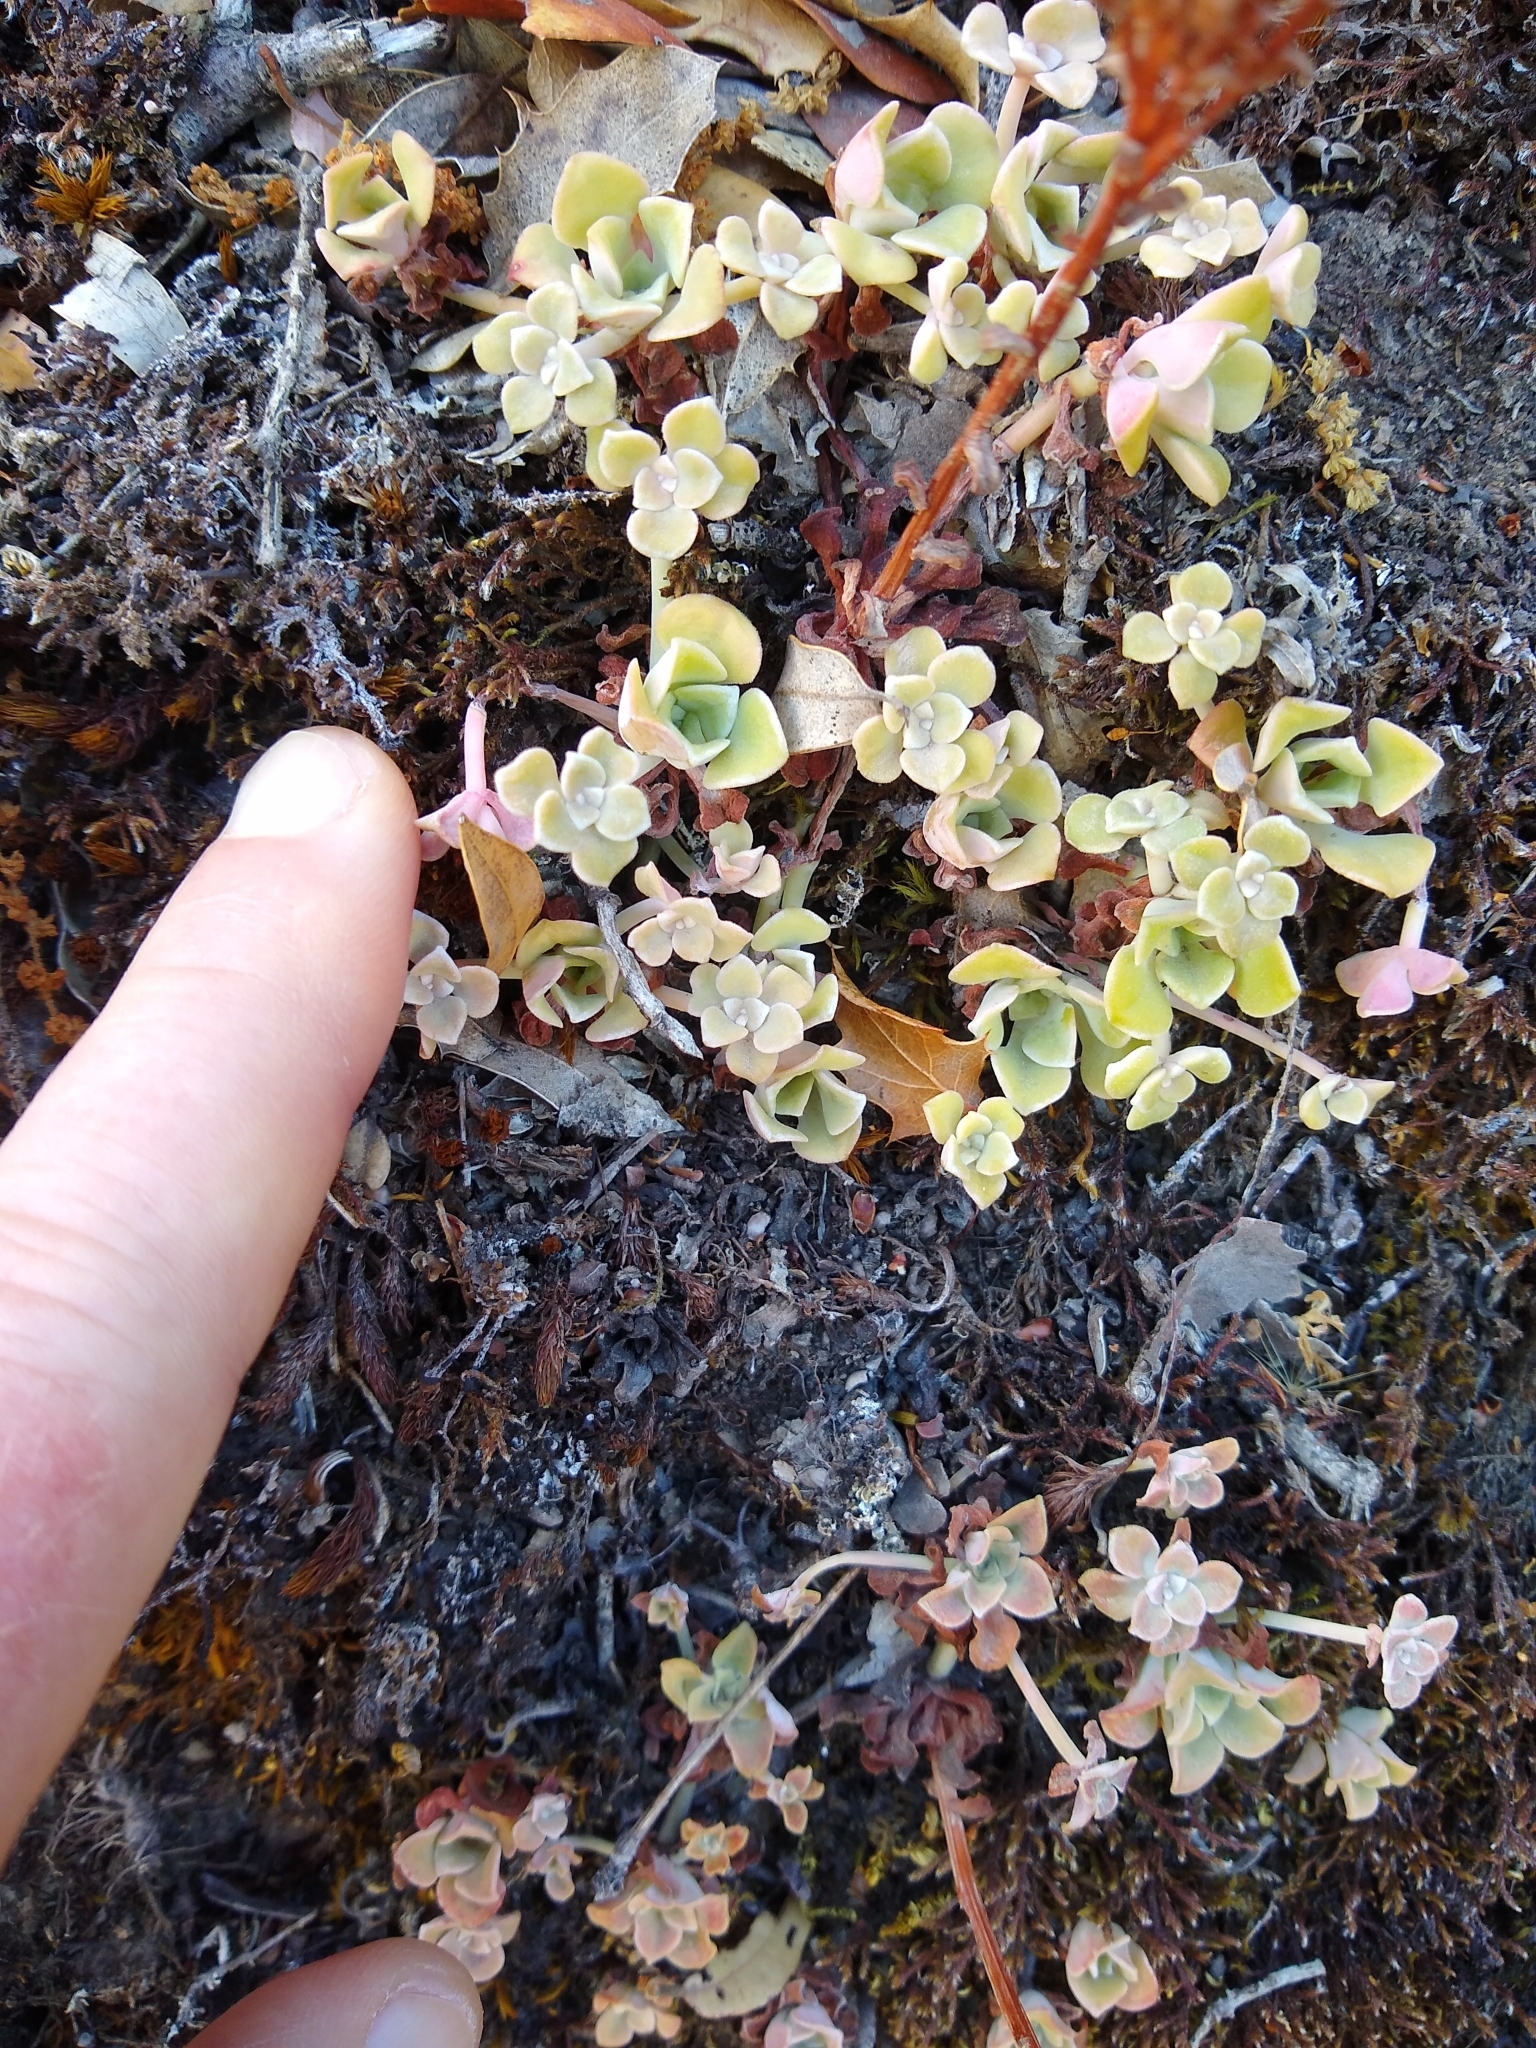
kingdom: Plantae
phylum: Tracheophyta
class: Magnoliopsida
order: Saxifragales
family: Crassulaceae
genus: Sedum
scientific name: Sedum spathulifolium
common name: Colorado stonecrop
